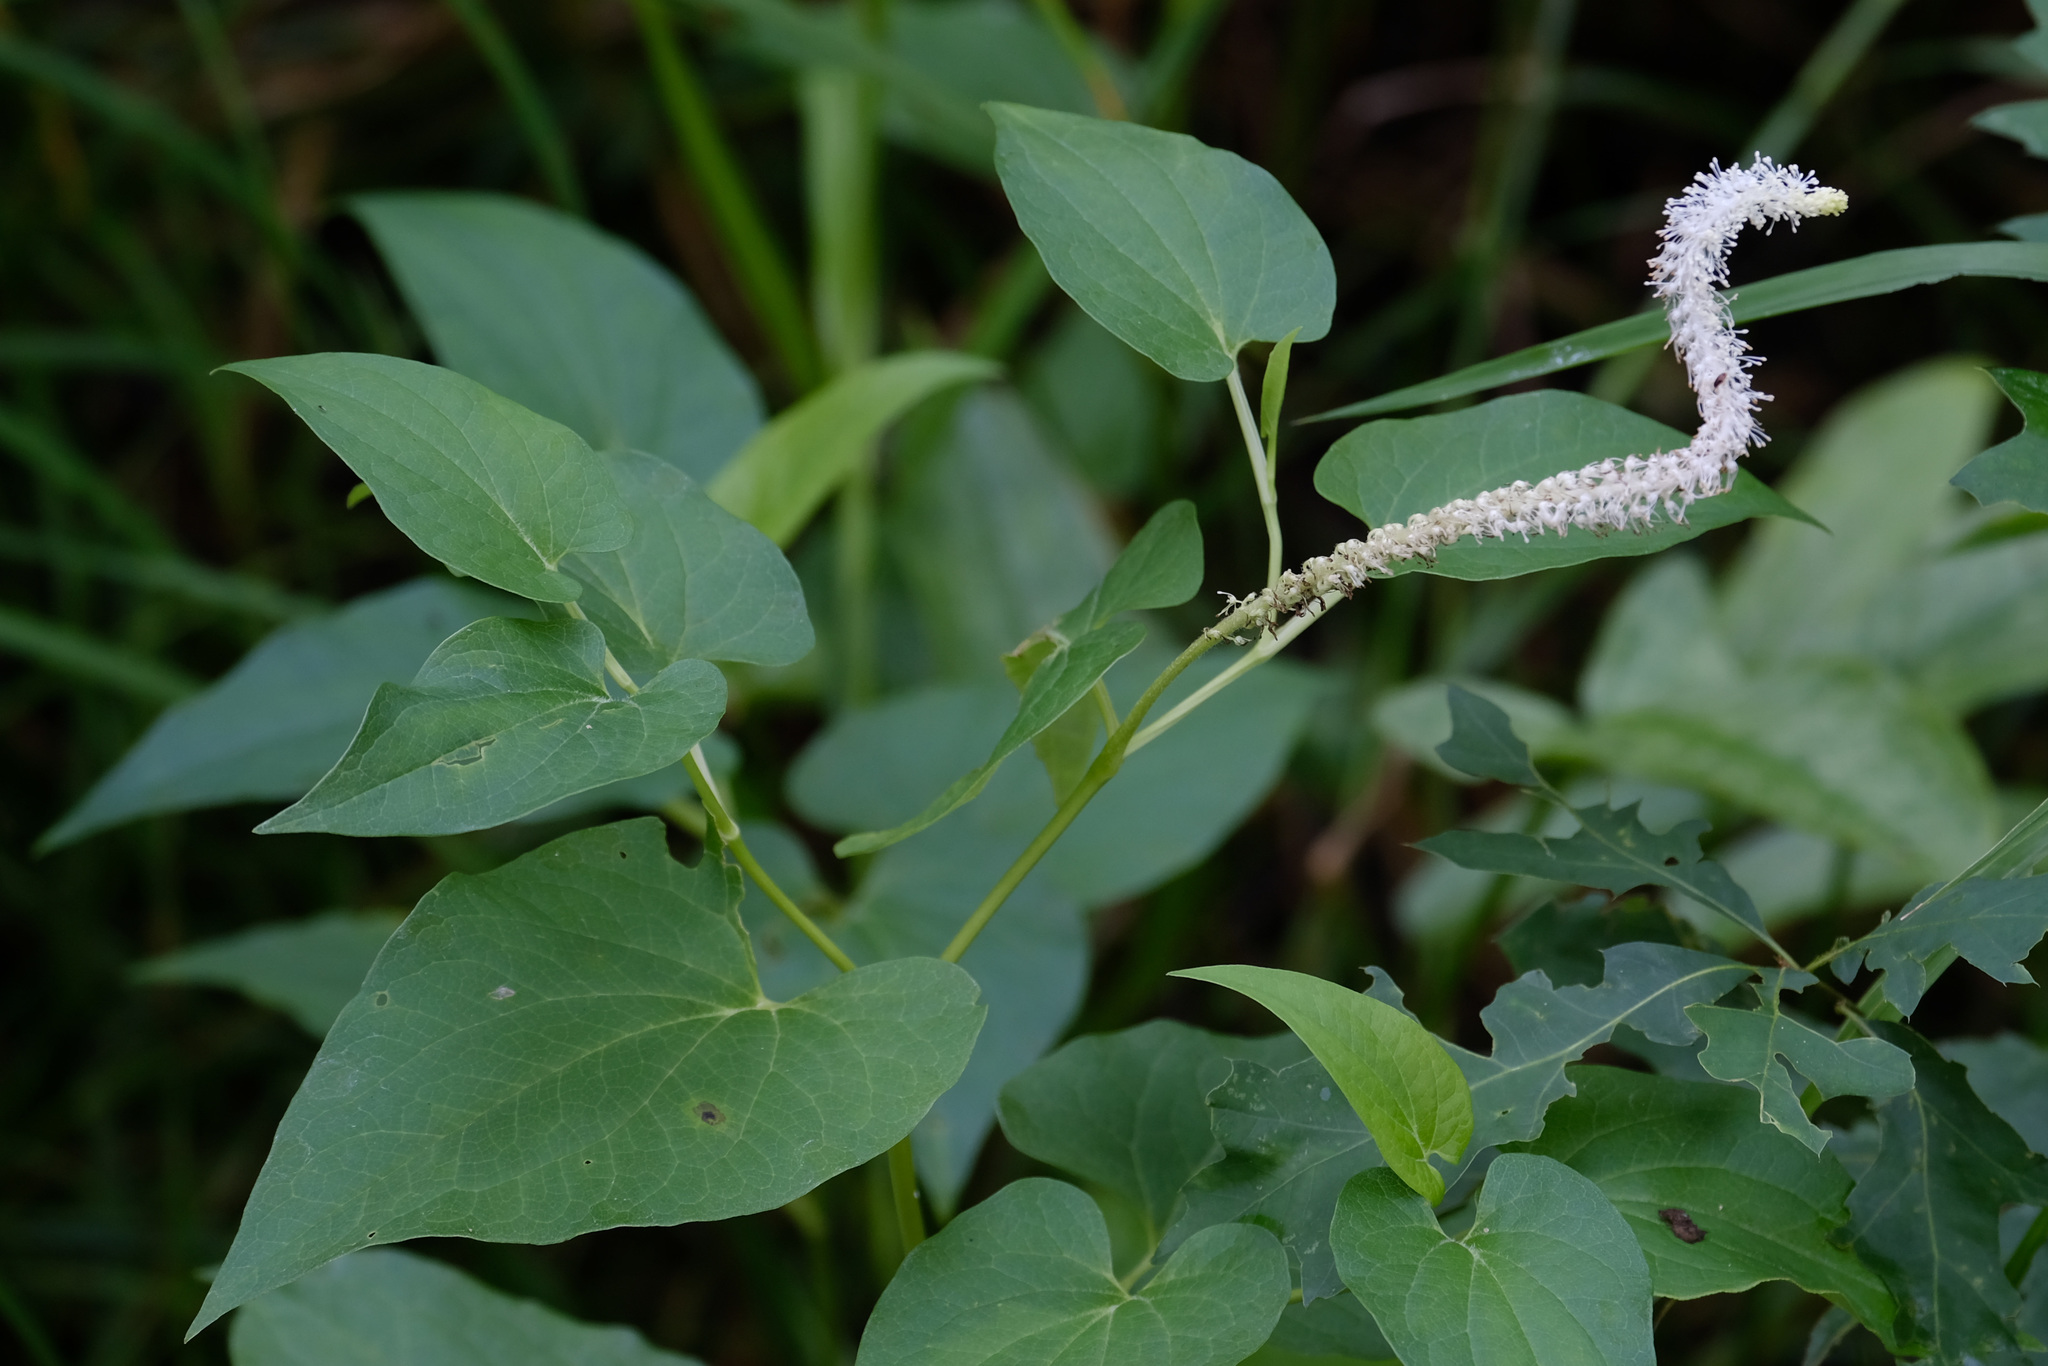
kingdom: Plantae
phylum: Tracheophyta
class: Magnoliopsida
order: Piperales
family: Saururaceae
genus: Saururus
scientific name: Saururus cernuus
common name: Lizard's-tail
